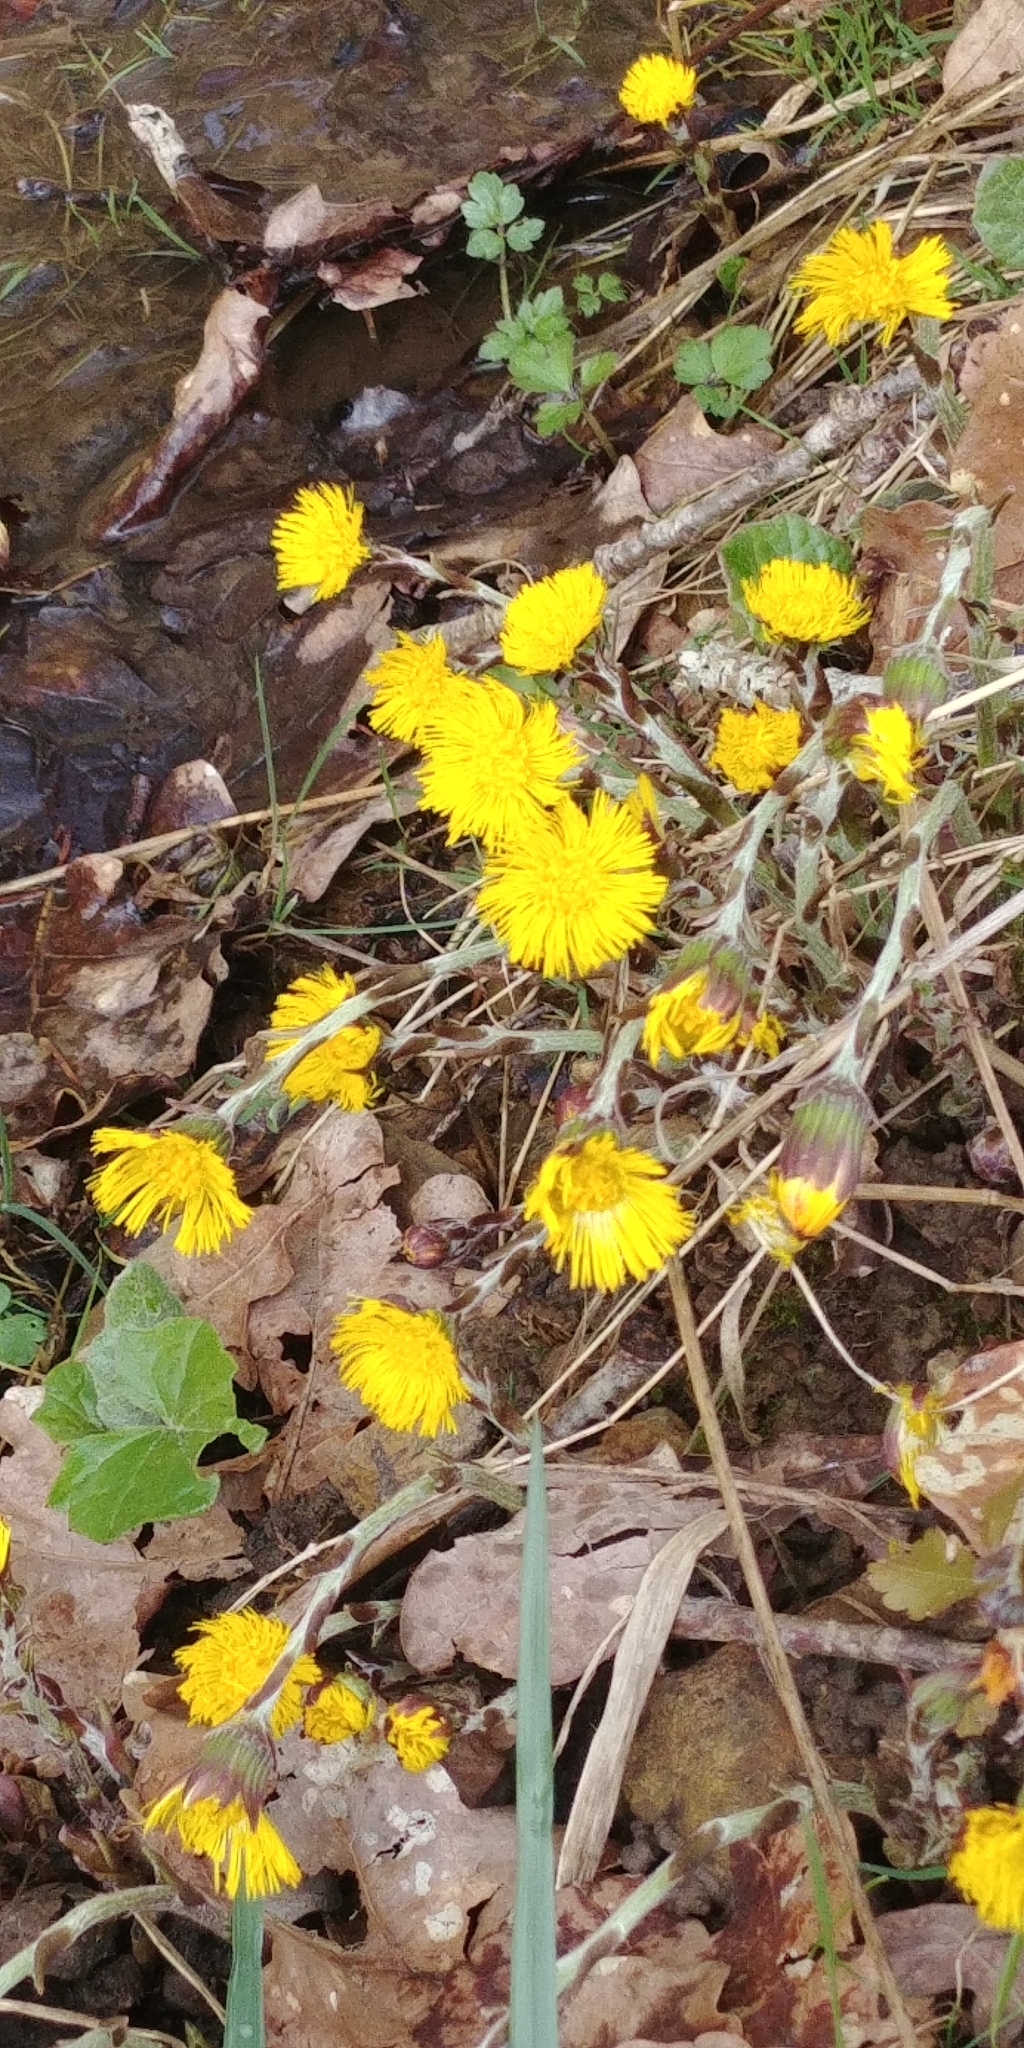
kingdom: Plantae
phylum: Tracheophyta
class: Magnoliopsida
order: Asterales
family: Asteraceae
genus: Tussilago
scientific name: Tussilago farfara
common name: Coltsfoot
